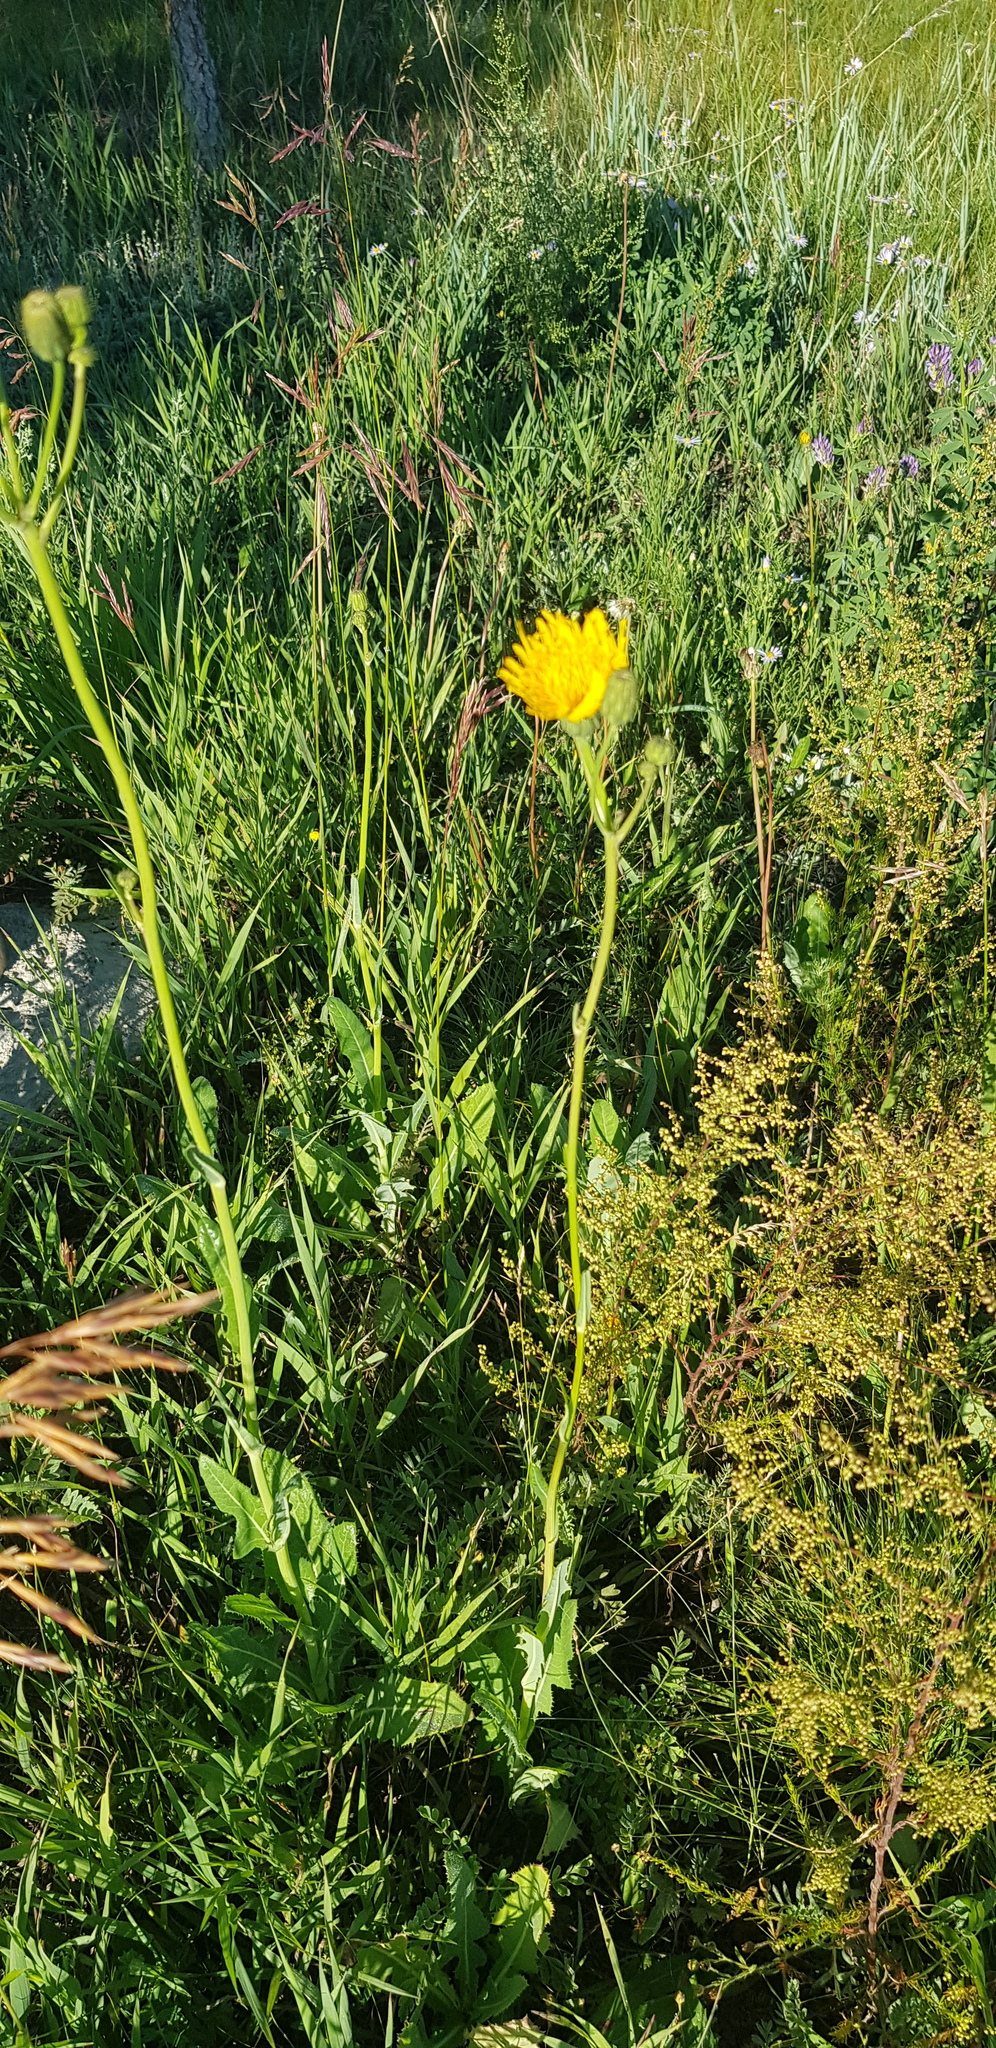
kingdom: Plantae
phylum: Tracheophyta
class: Magnoliopsida
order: Asterales
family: Asteraceae
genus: Sonchus
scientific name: Sonchus oleraceus
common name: Common sowthistle
